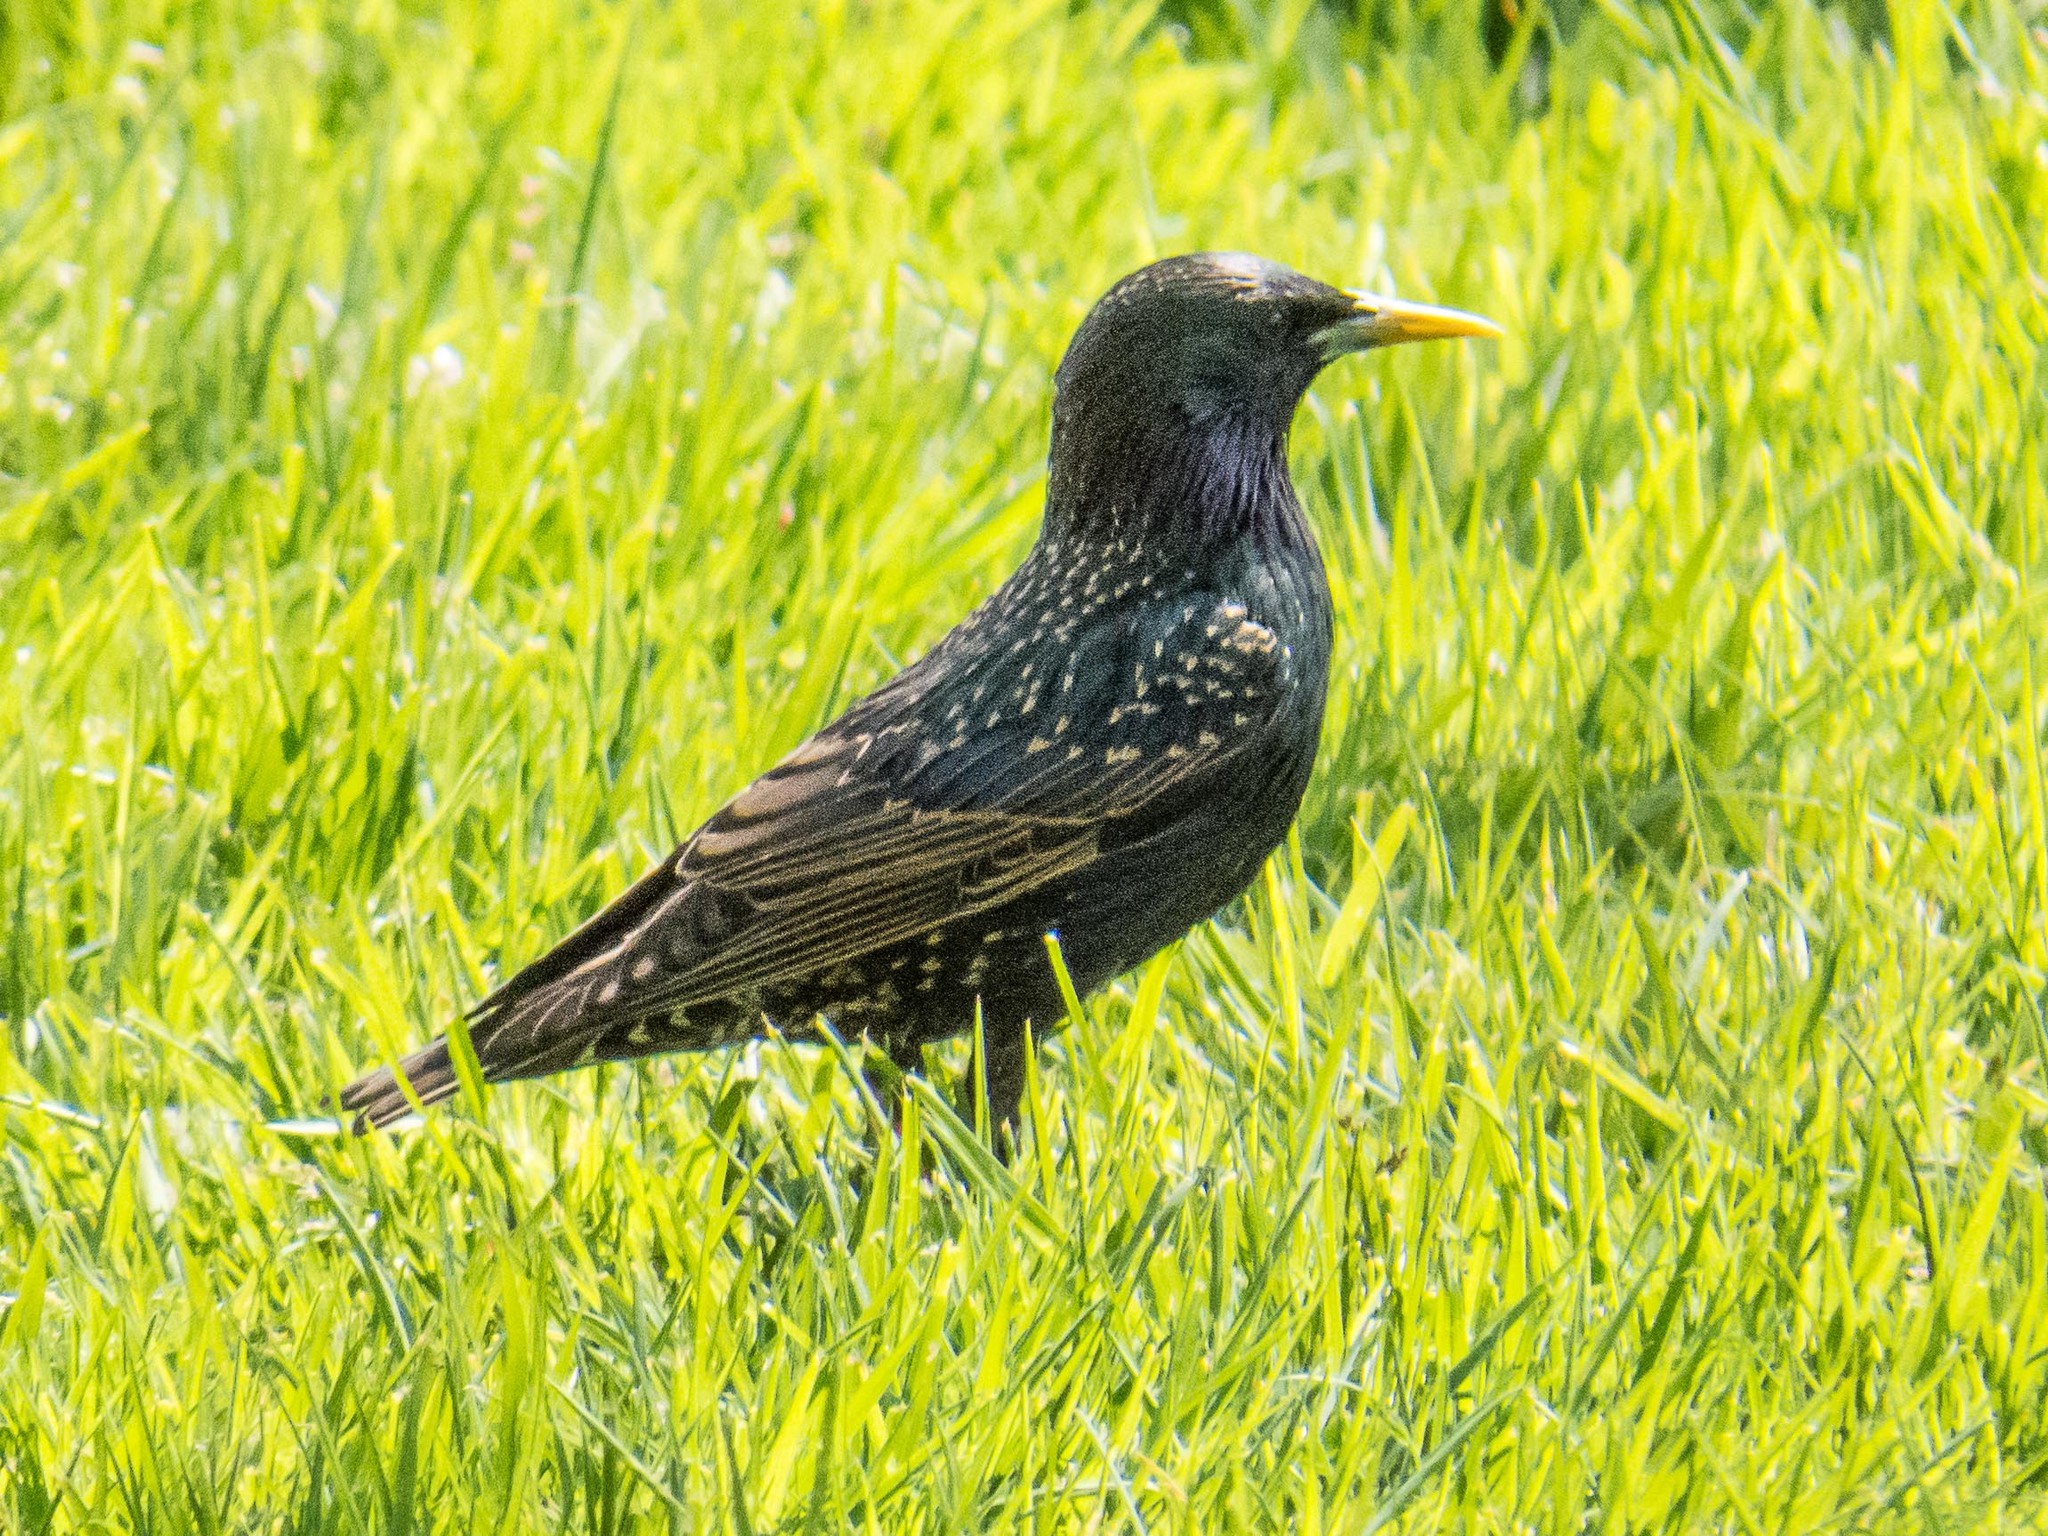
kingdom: Animalia
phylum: Chordata
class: Aves
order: Passeriformes
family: Sturnidae
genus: Sturnus
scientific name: Sturnus vulgaris
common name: Common starling
